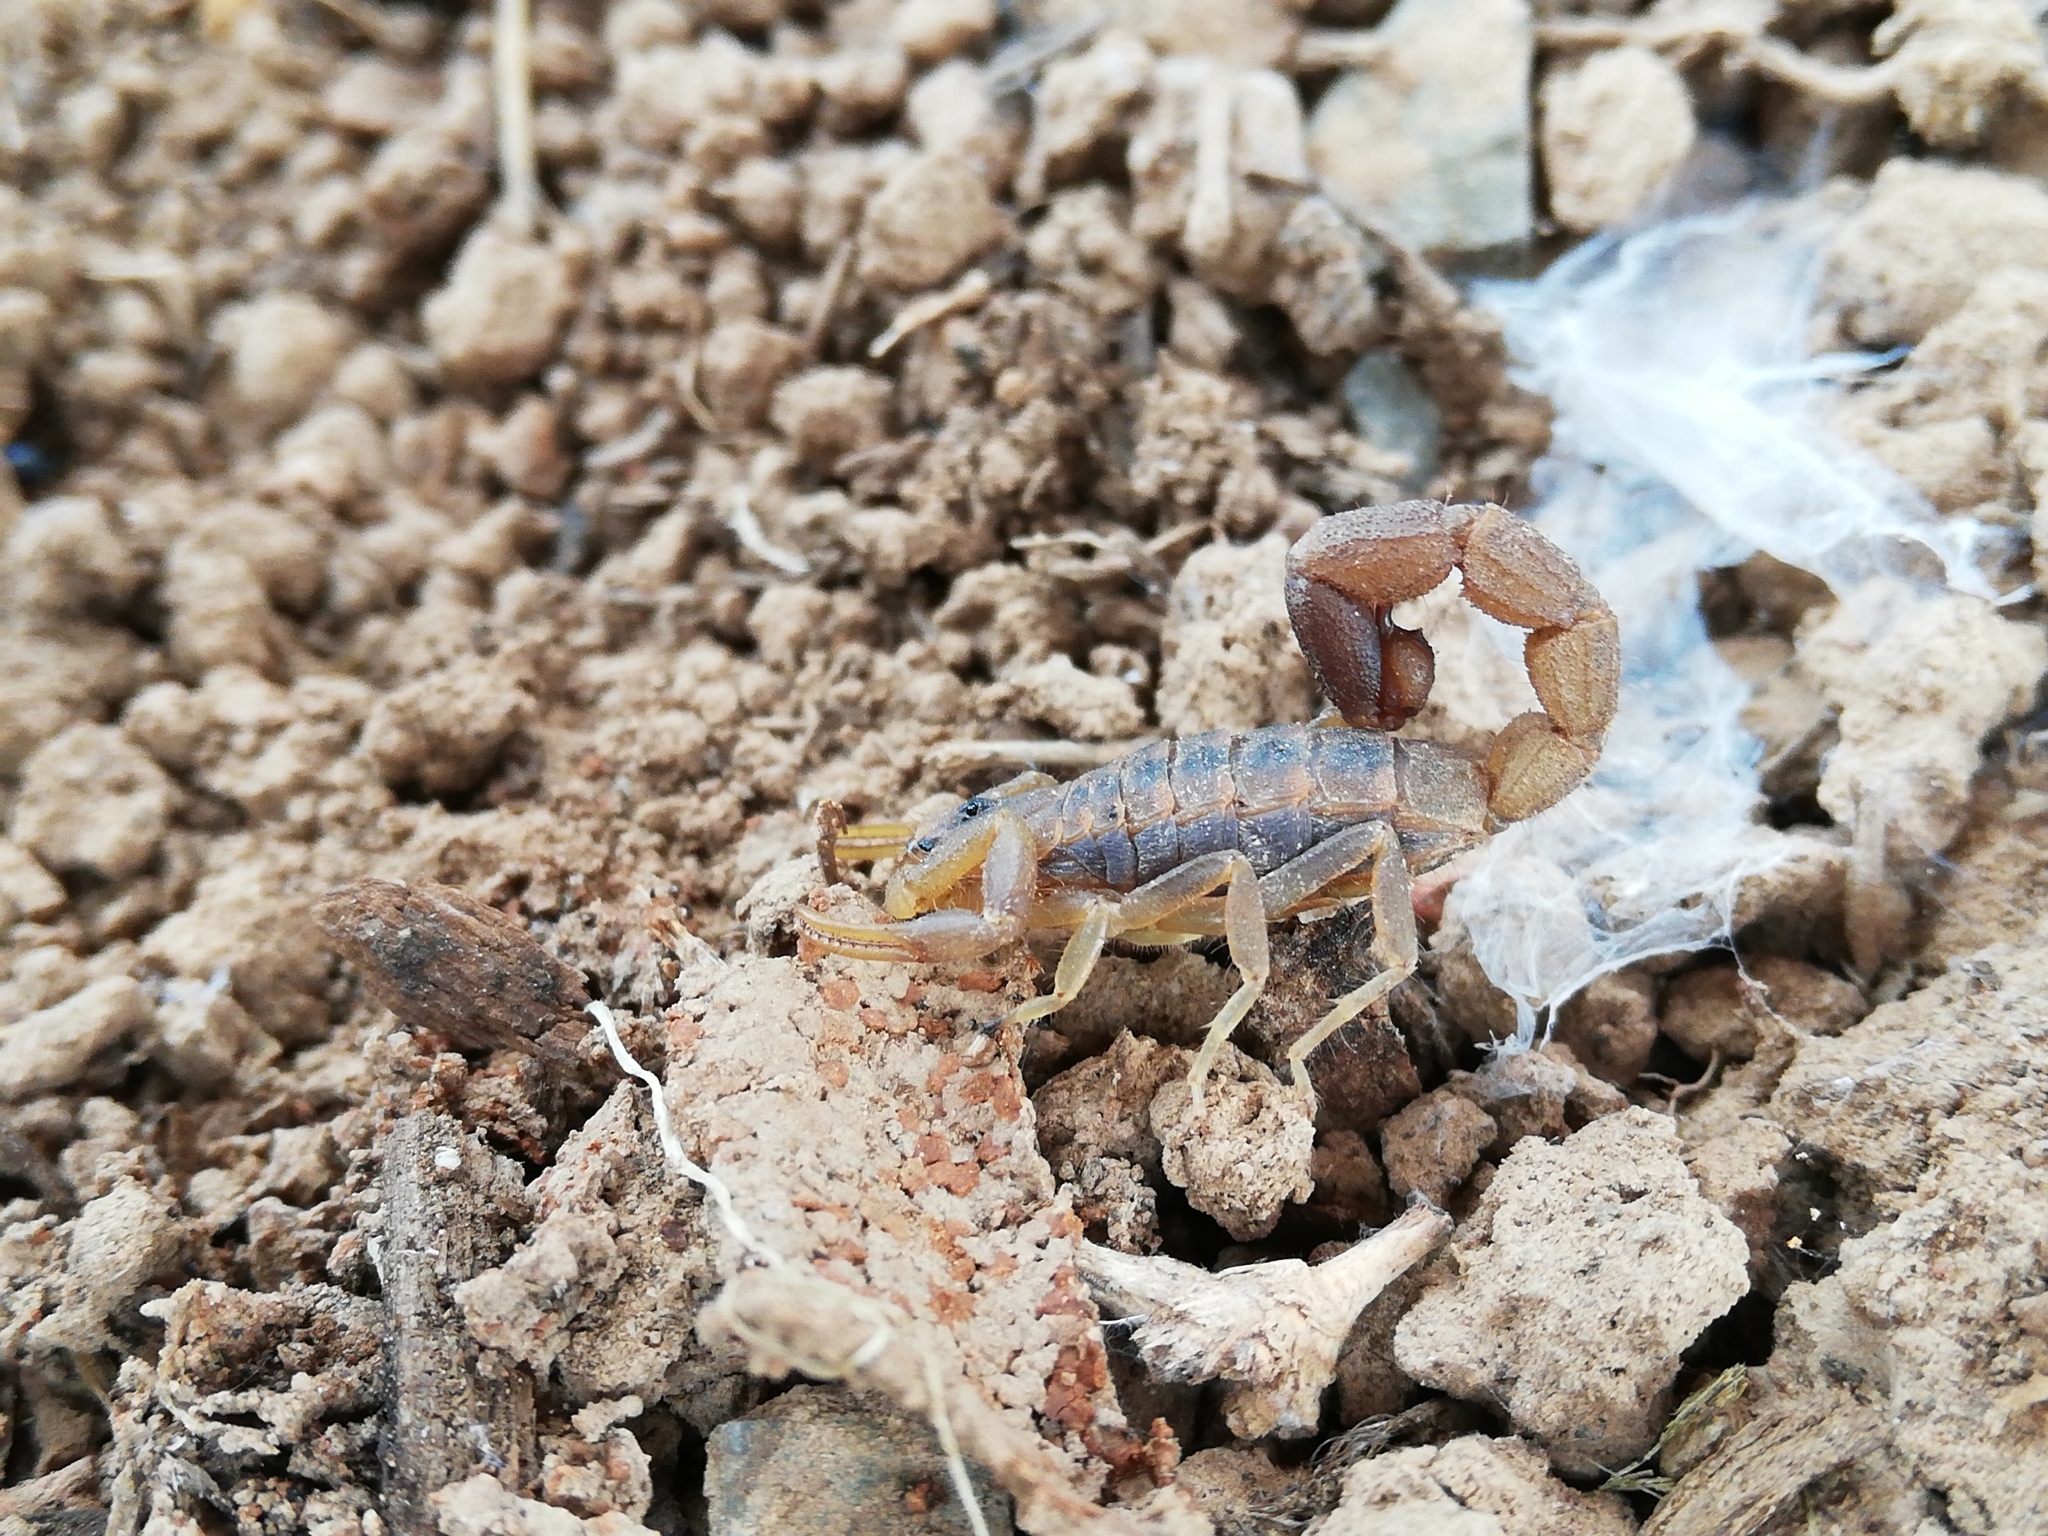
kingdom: Animalia
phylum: Arthropoda
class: Arachnida
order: Scorpiones
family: Buthidae
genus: Uroplectes
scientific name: Uroplectes triangulifer
